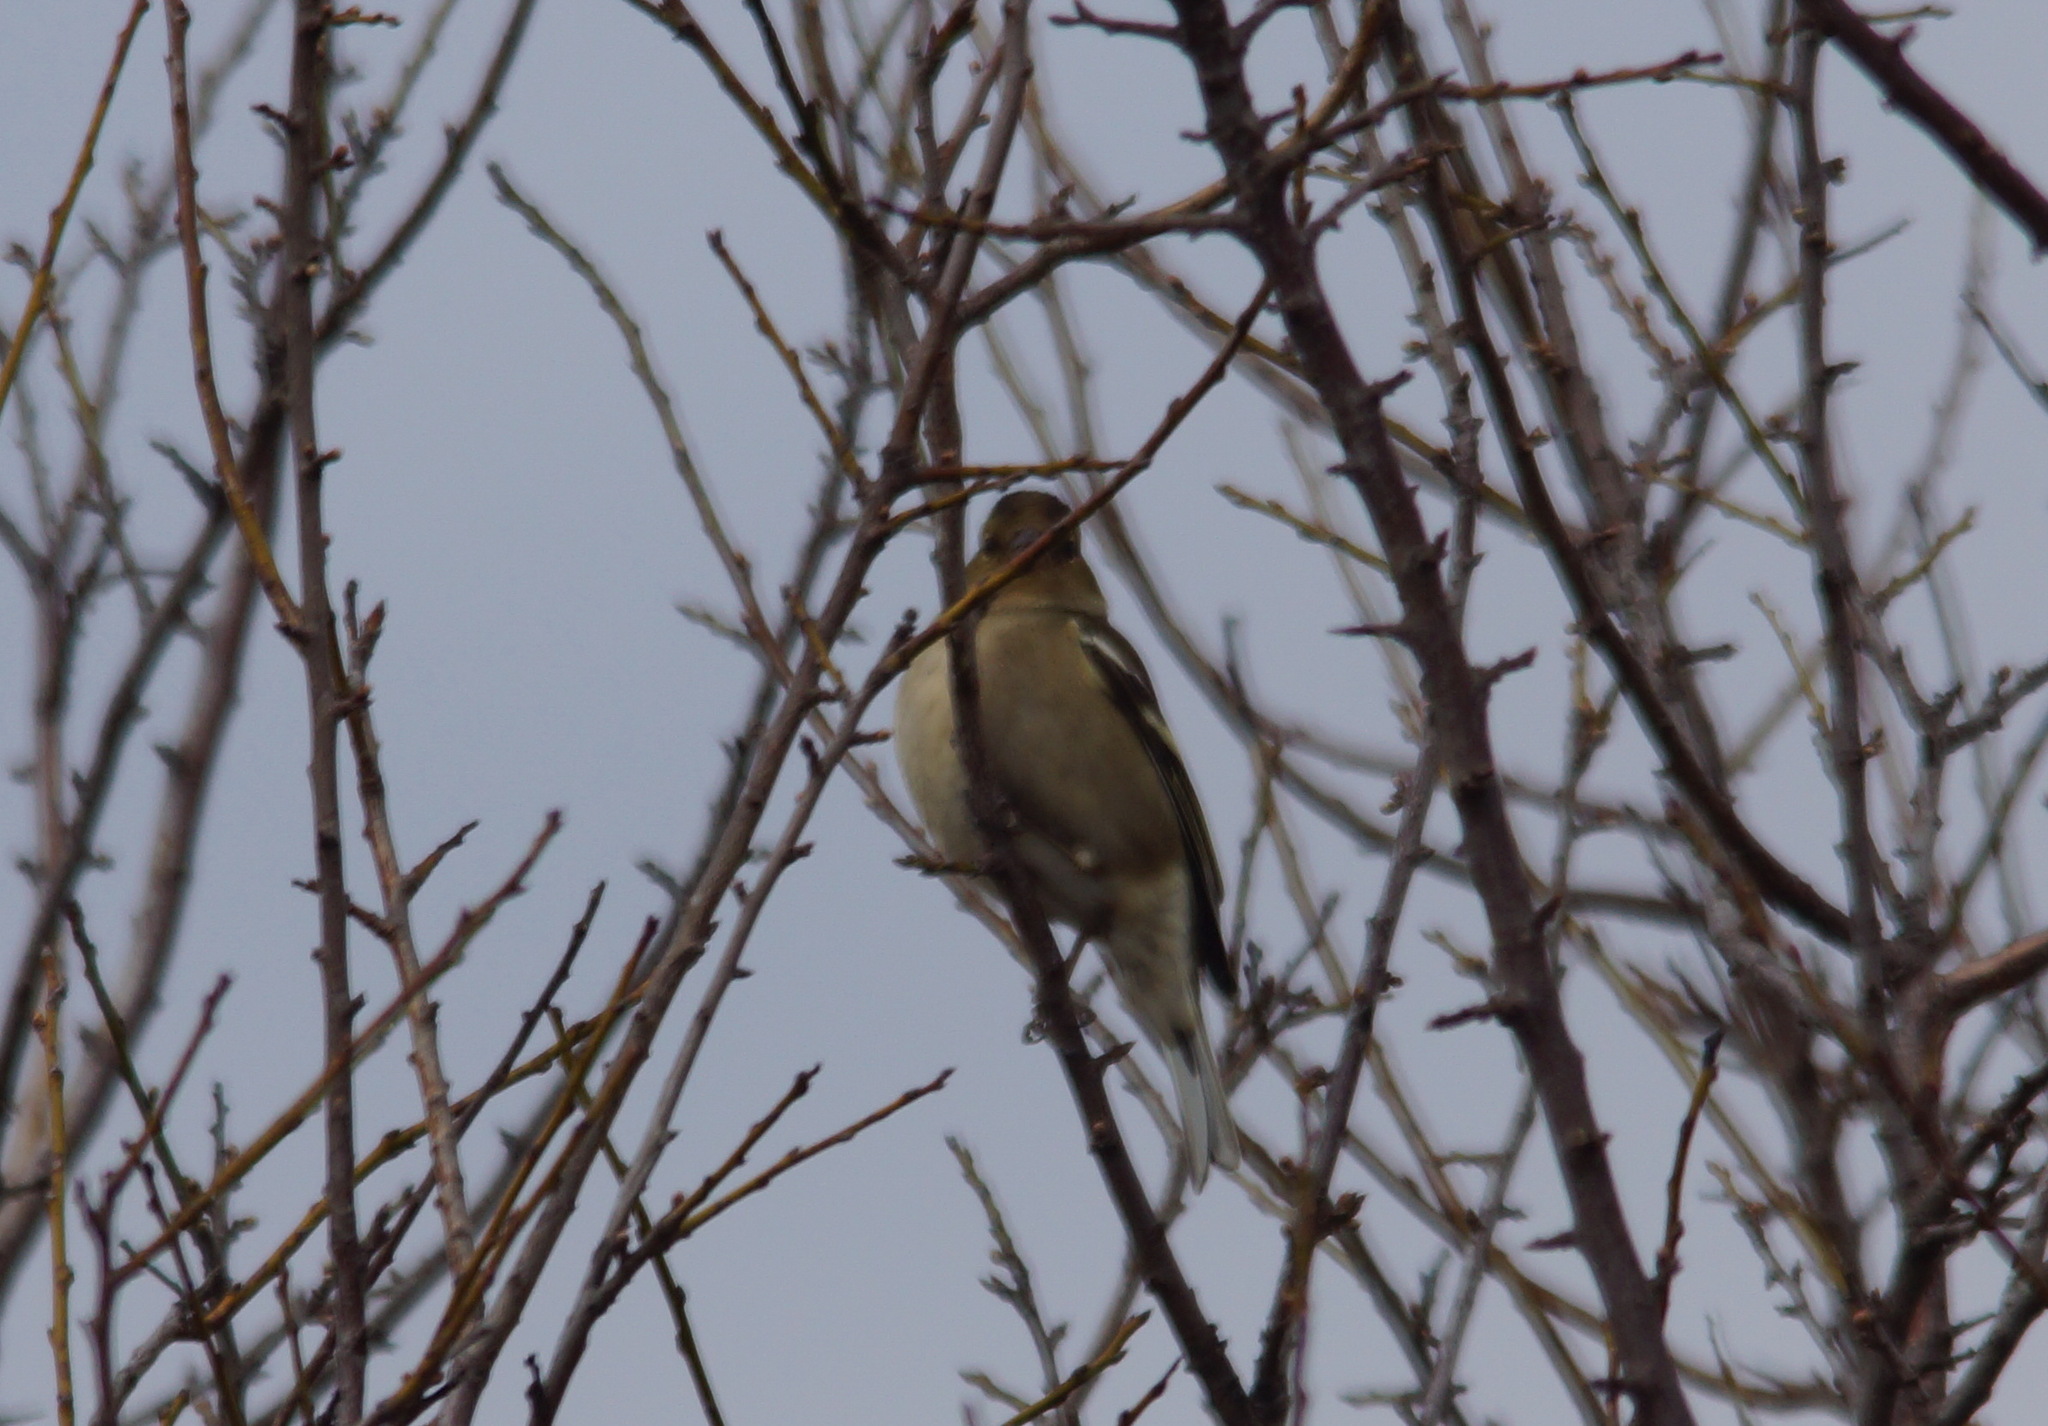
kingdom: Animalia
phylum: Chordata
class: Aves
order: Passeriformes
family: Fringillidae
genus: Fringilla
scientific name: Fringilla coelebs
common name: Common chaffinch
